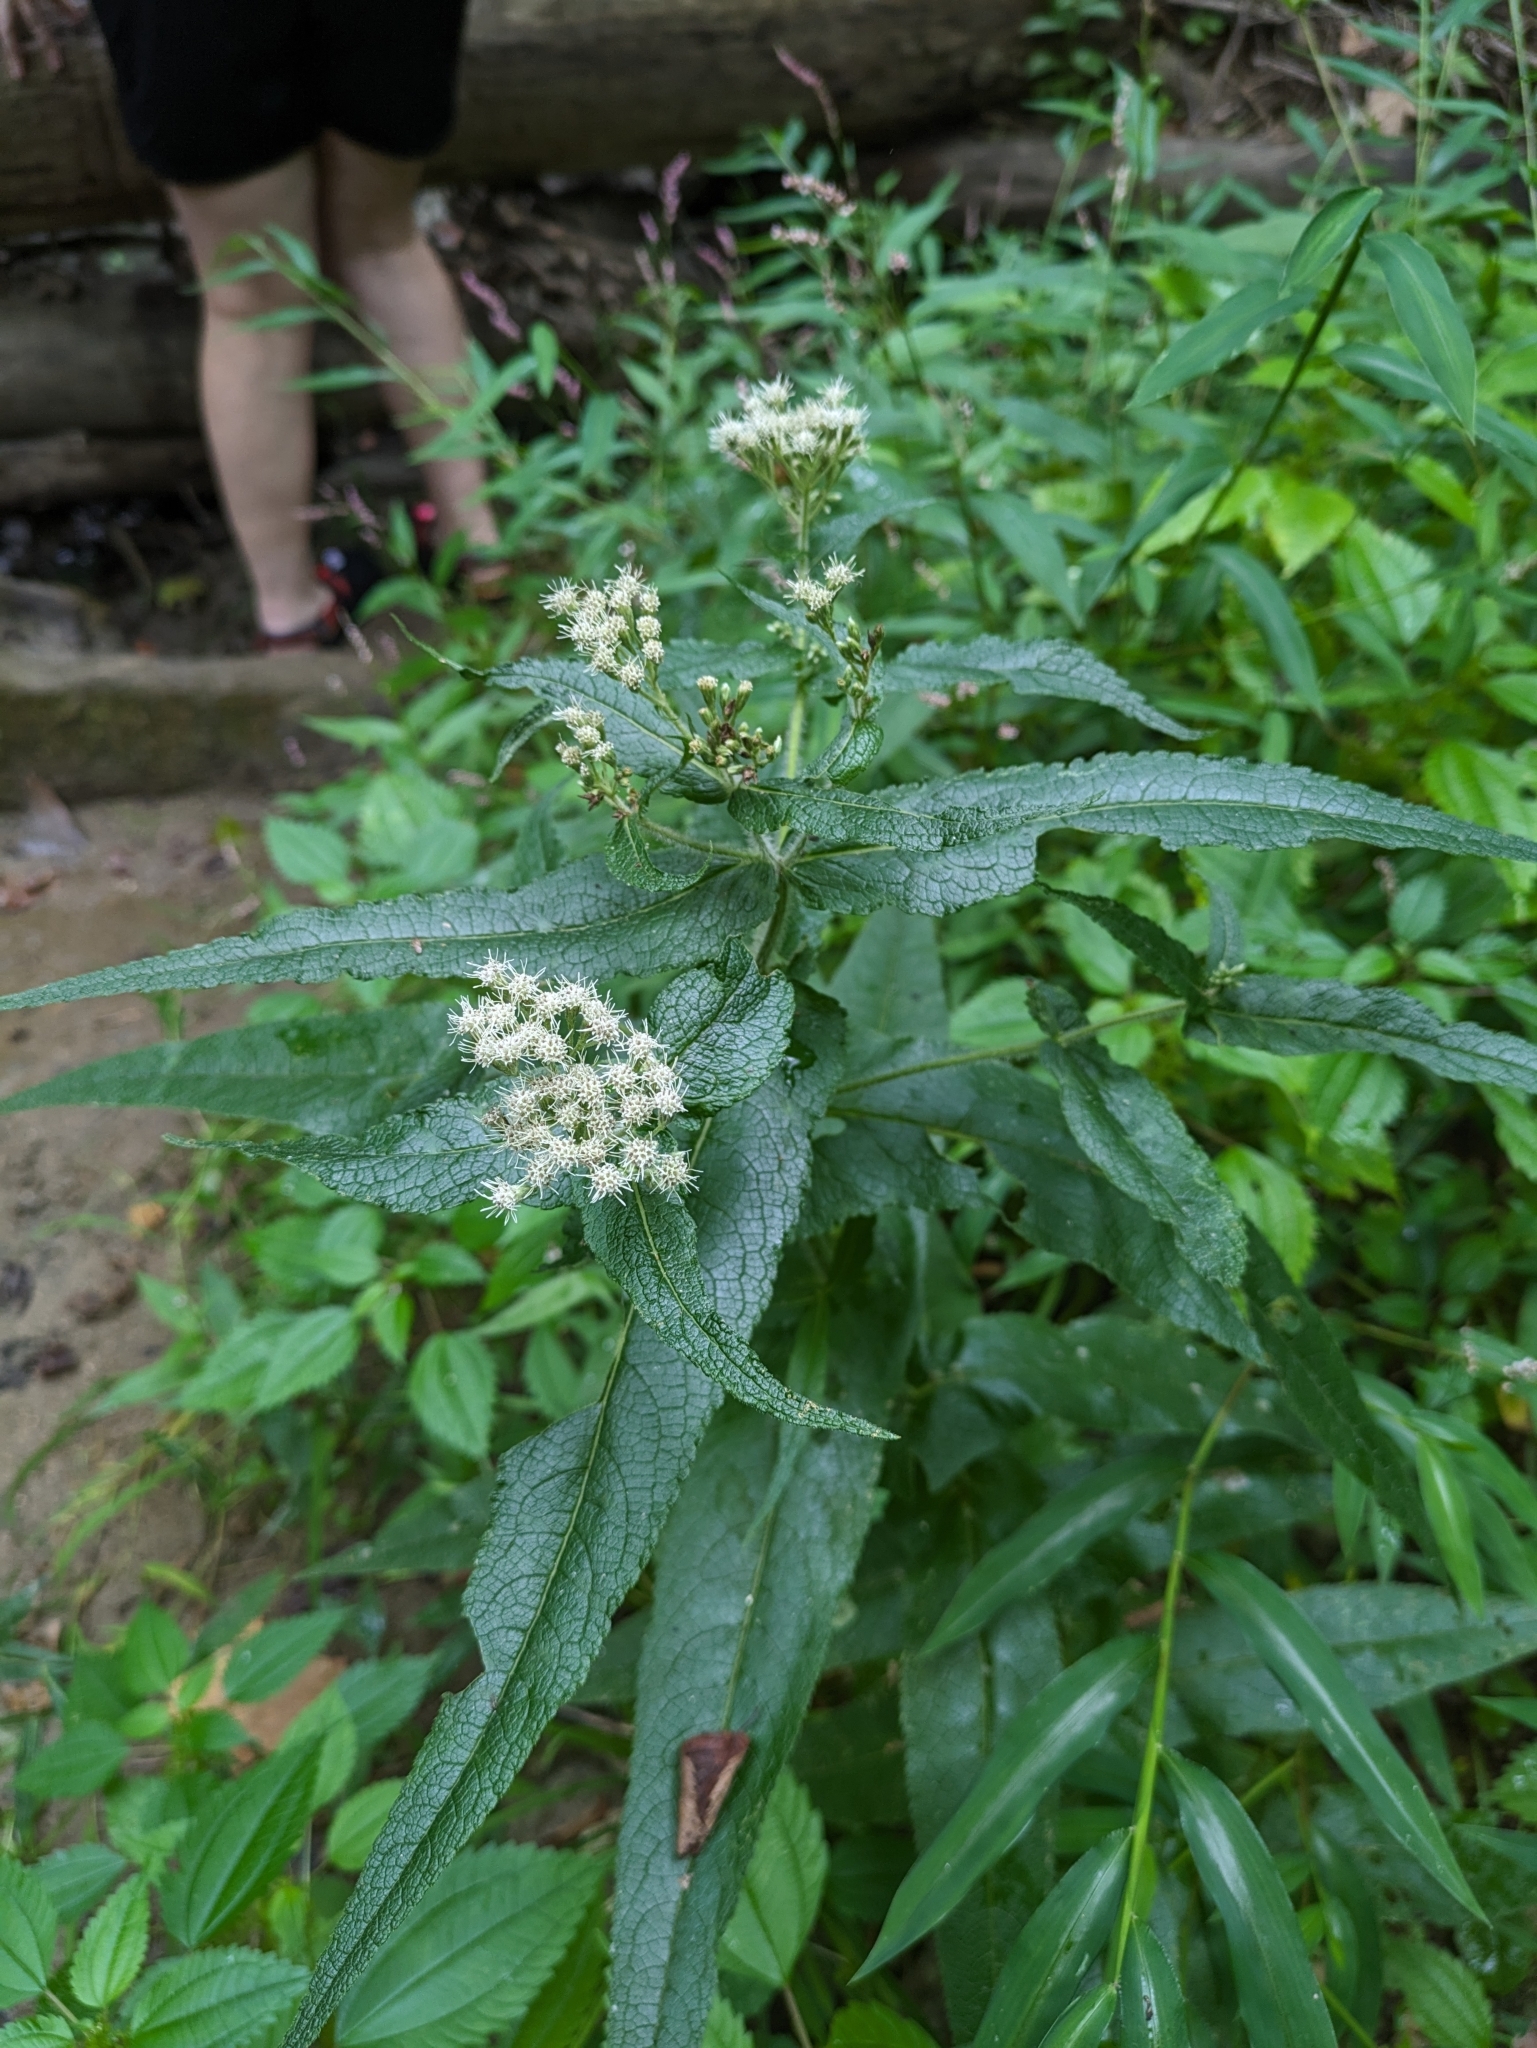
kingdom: Plantae
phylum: Tracheophyta
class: Magnoliopsida
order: Asterales
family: Asteraceae
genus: Eupatorium
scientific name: Eupatorium perfoliatum
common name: Boneset
